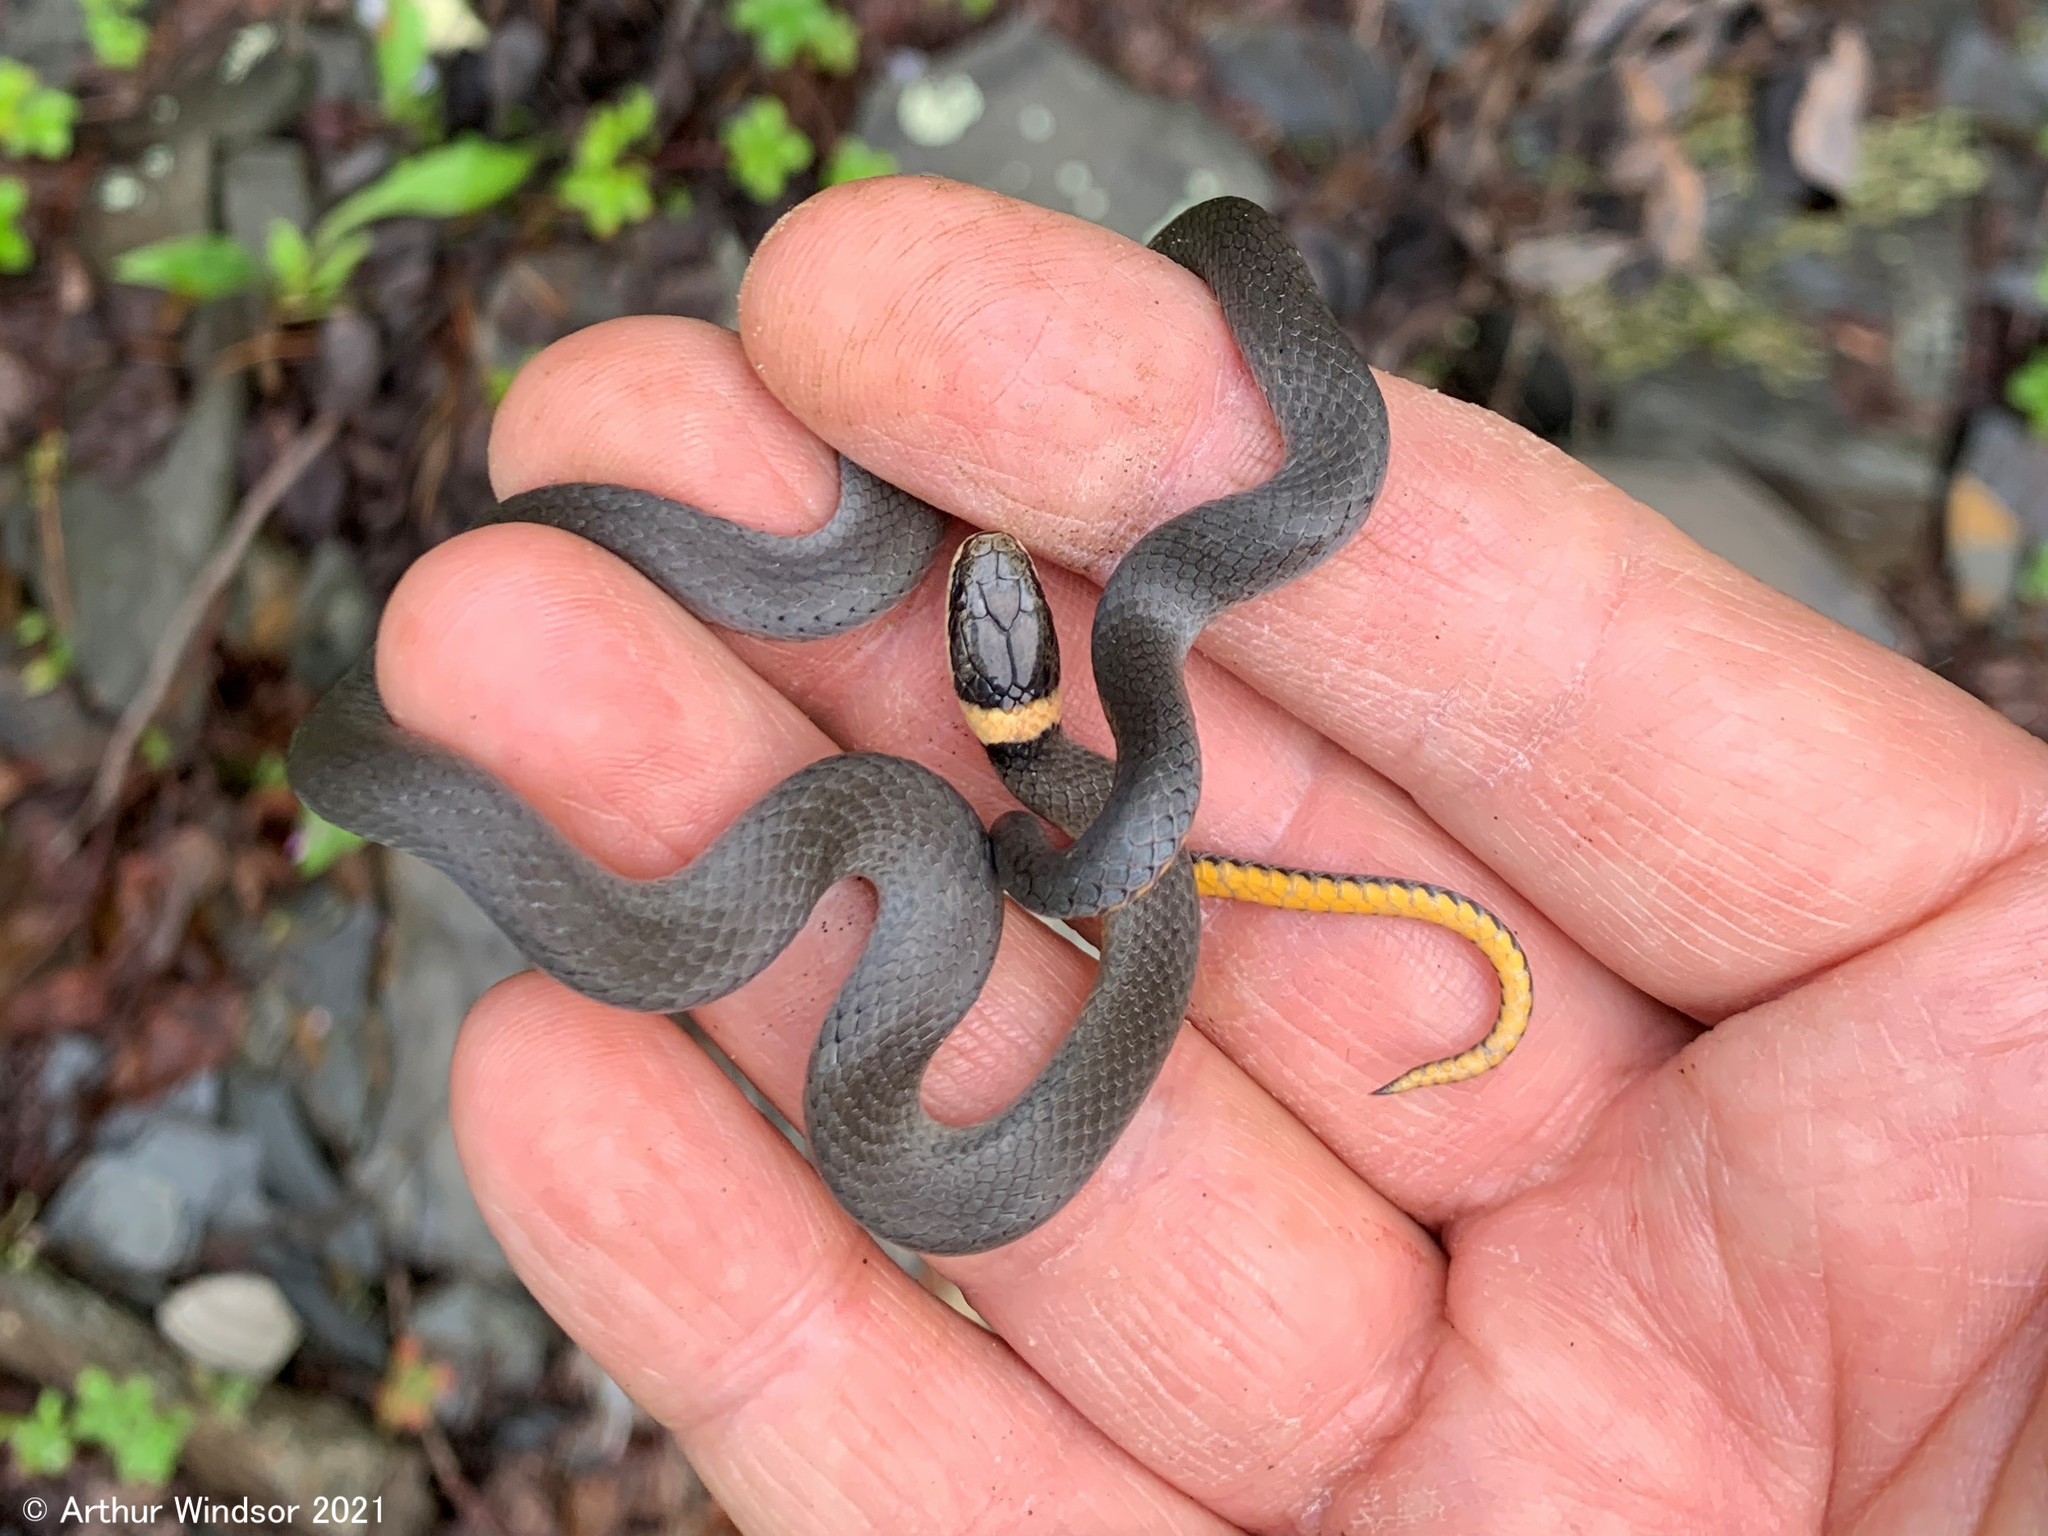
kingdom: Animalia
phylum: Chordata
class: Squamata
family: Colubridae
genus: Diadophis
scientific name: Diadophis punctatus
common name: Ringneck snake
